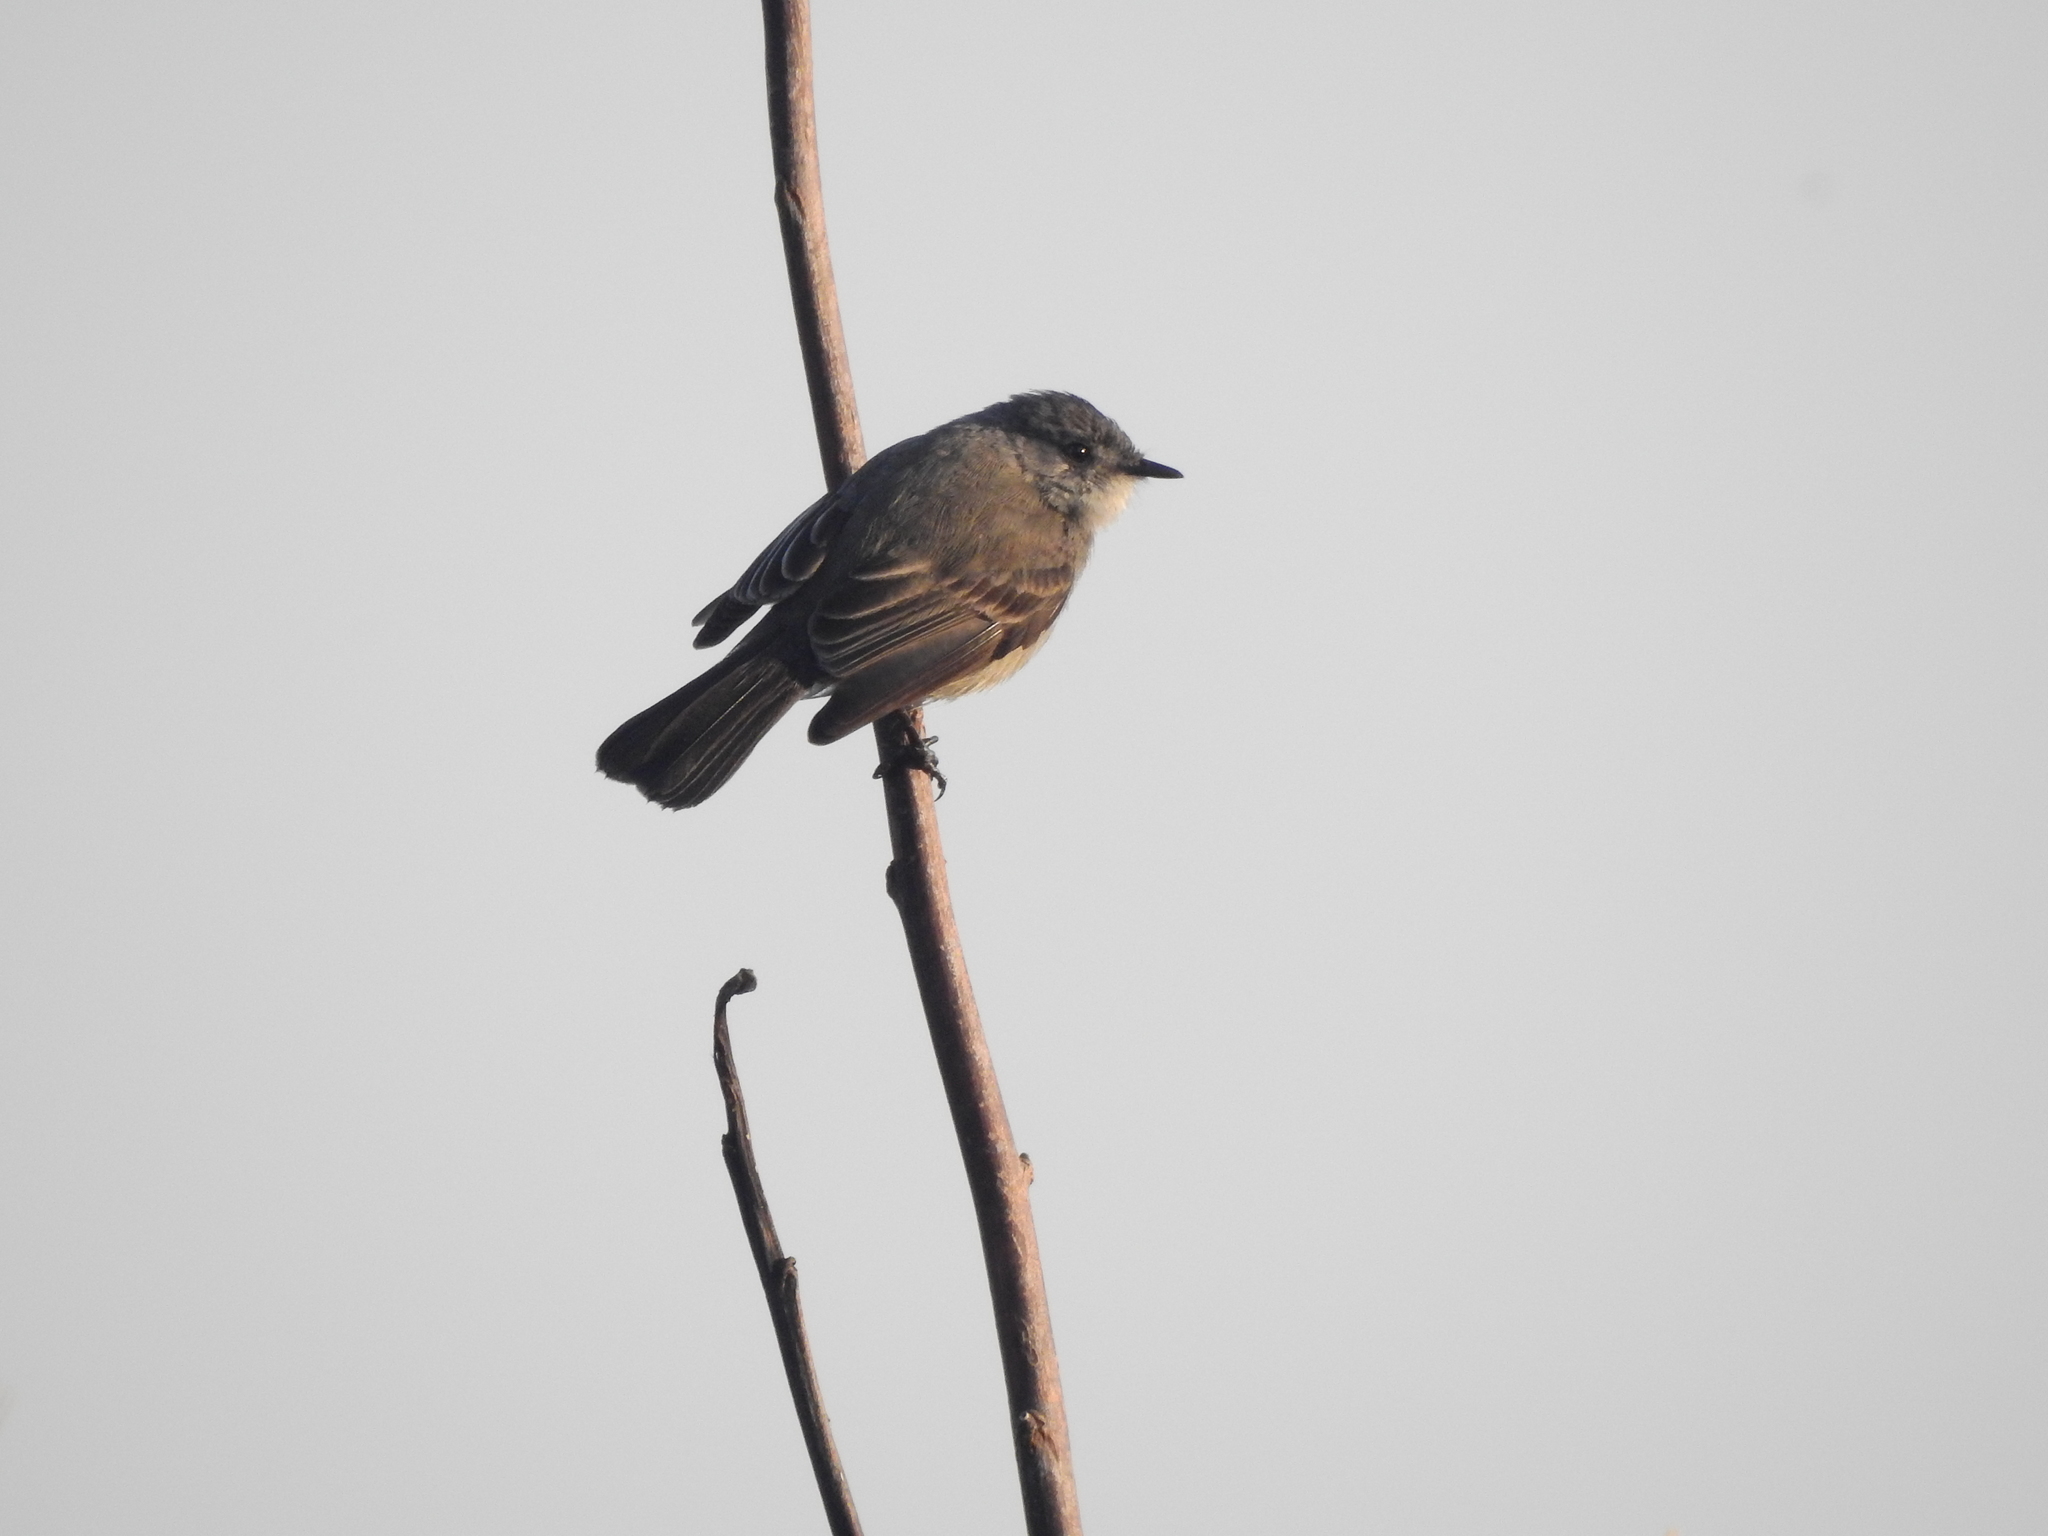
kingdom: Animalia
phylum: Chordata
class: Aves
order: Passeriformes
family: Tyrannidae
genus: Serpophaga
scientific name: Serpophaga nigricans
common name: Sooty tyrannulet
